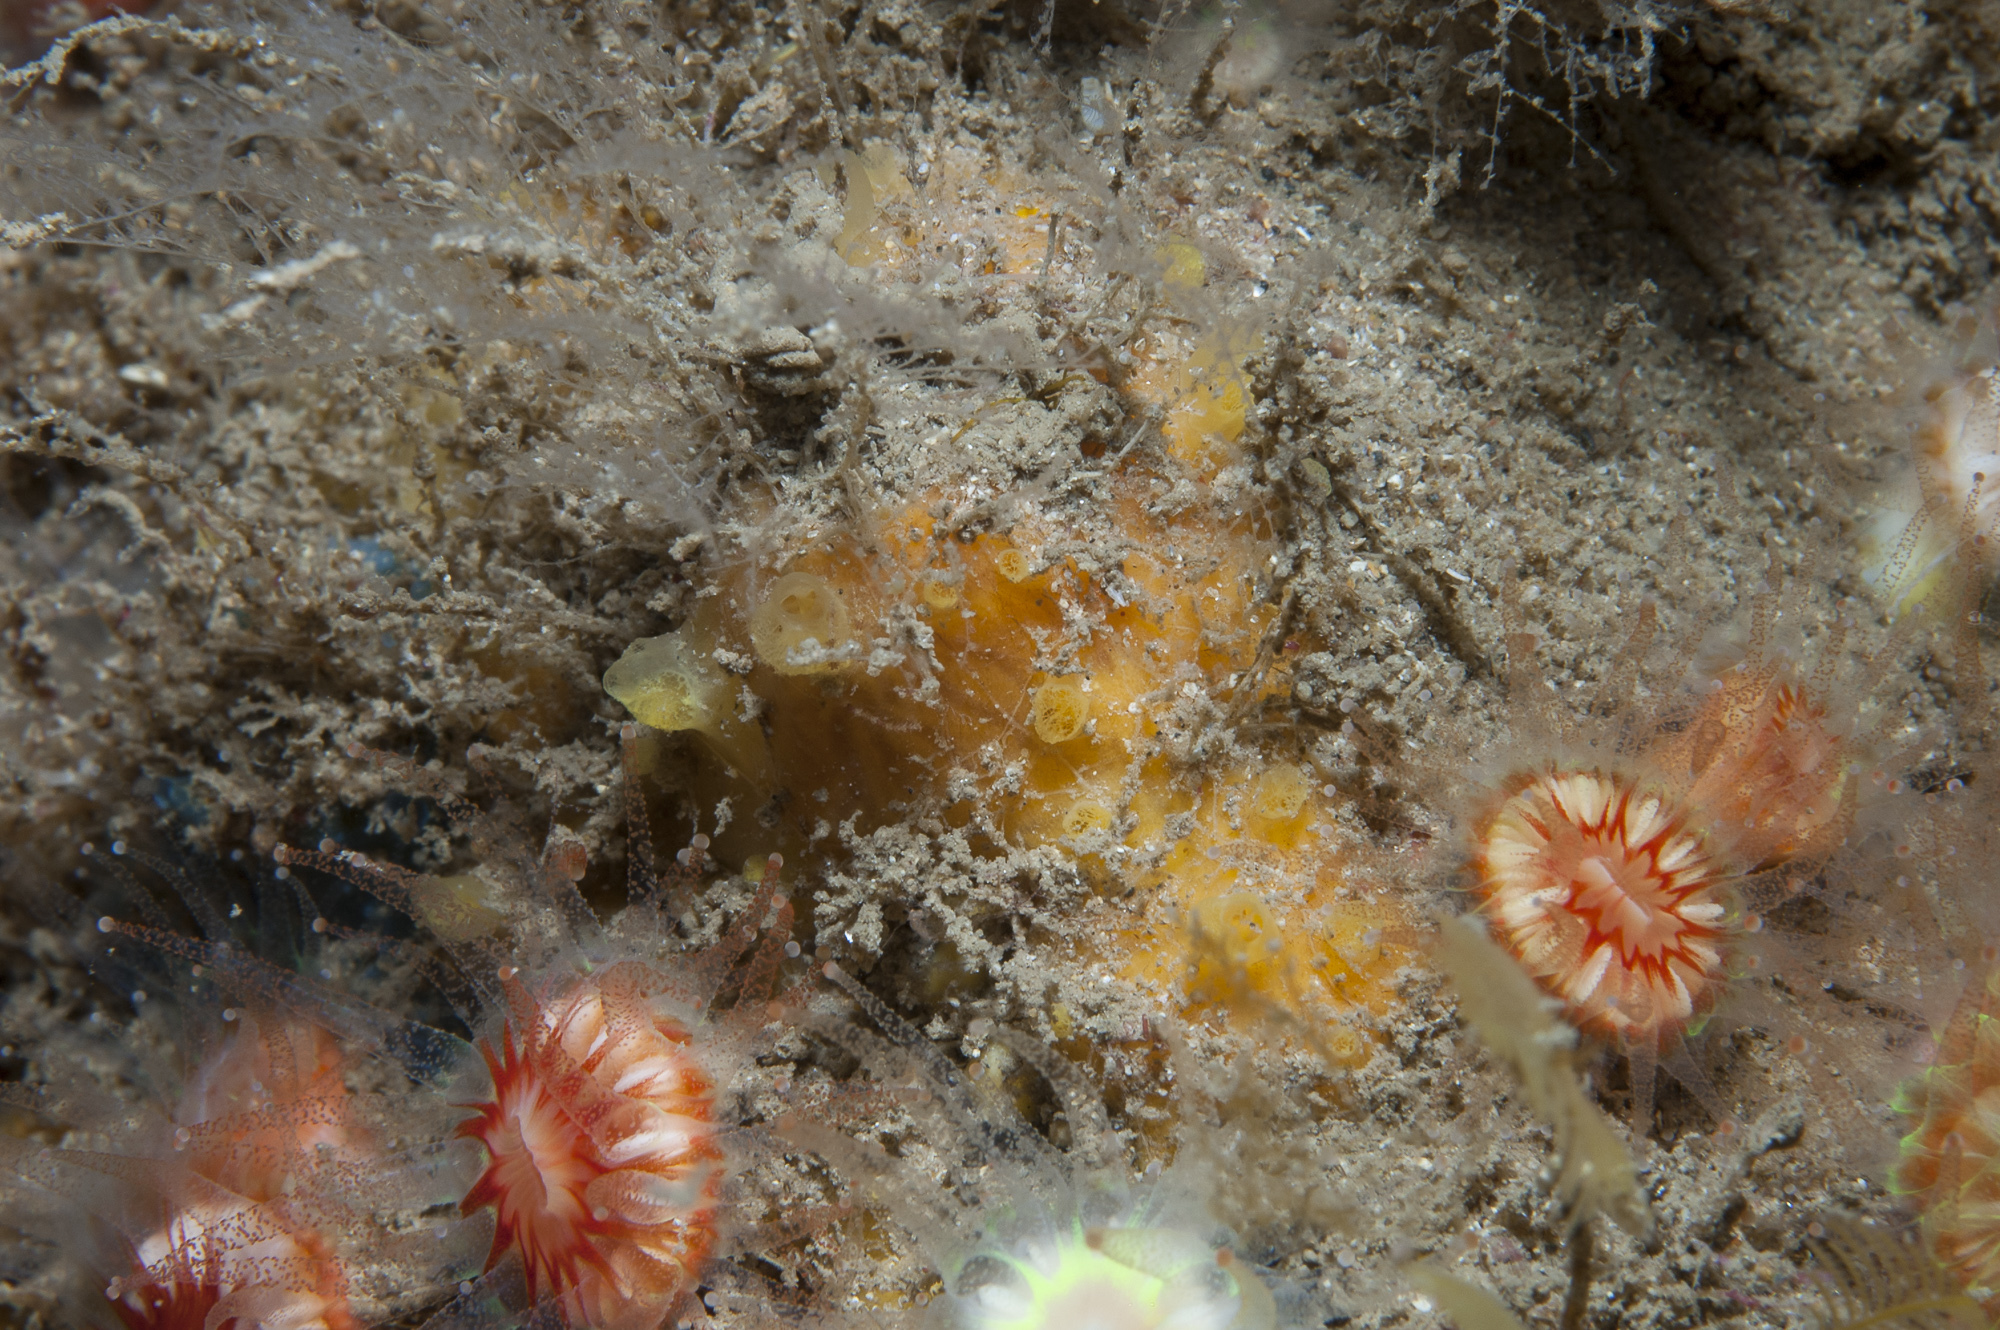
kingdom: Animalia
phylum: Porifera
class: Demospongiae
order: Poecilosclerida
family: Hymedesmiidae
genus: Hymedesmia
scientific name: Hymedesmia rathlinia
